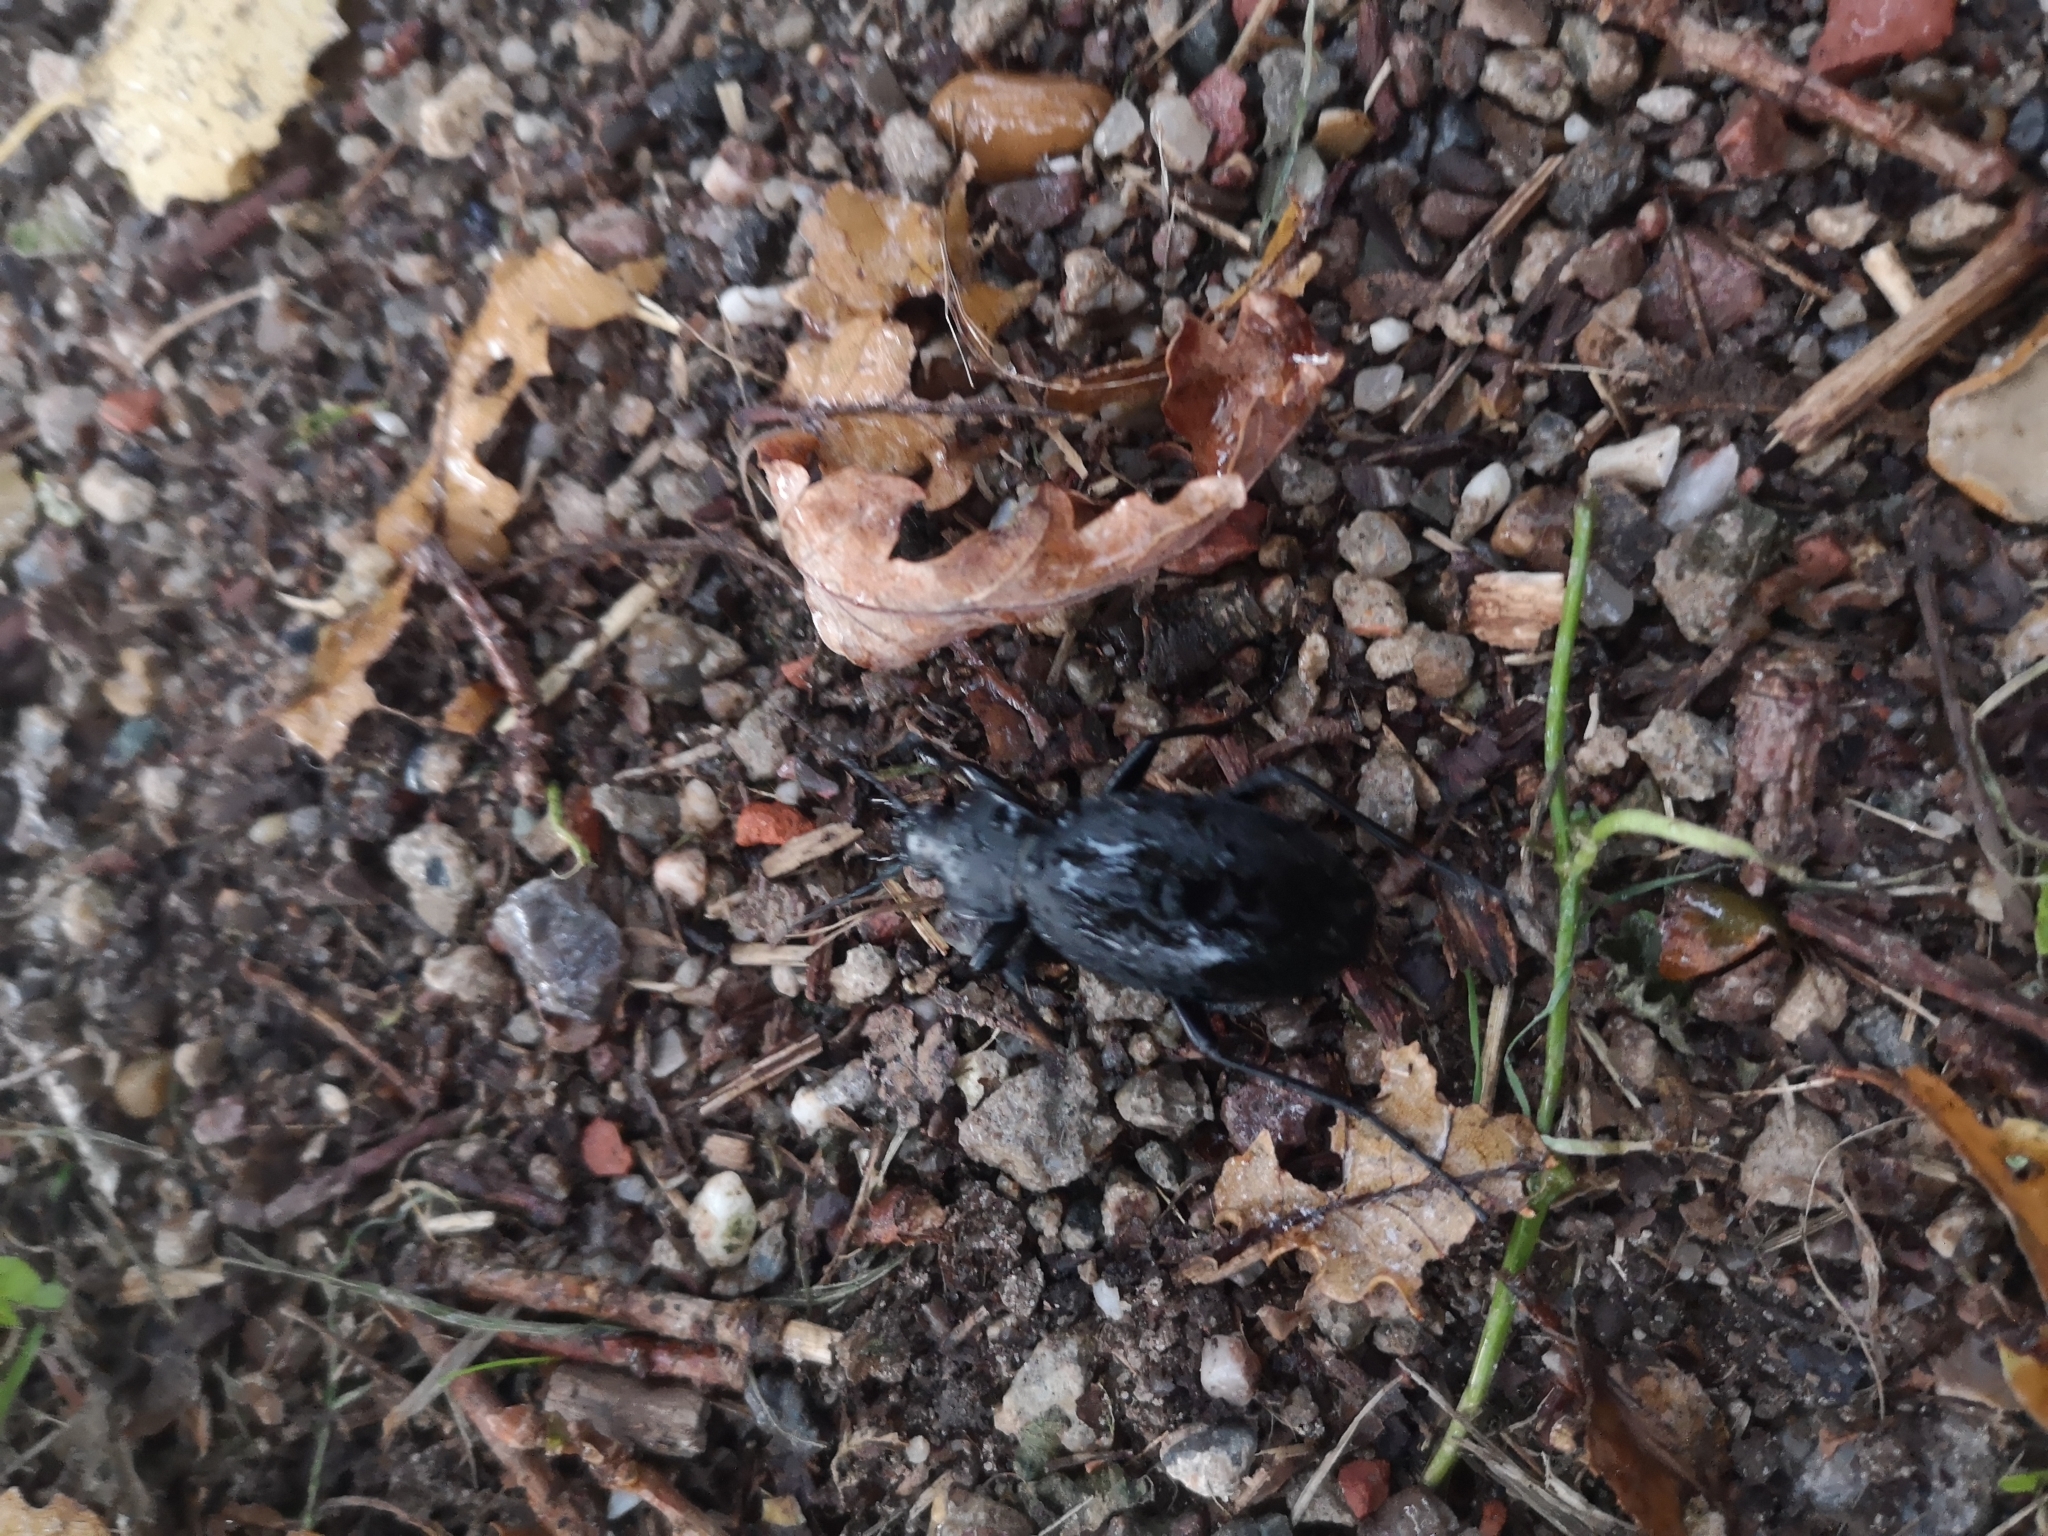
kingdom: Animalia
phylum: Arthropoda
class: Insecta
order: Coleoptera
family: Carabidae
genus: Carabus
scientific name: Carabus coriaceus
